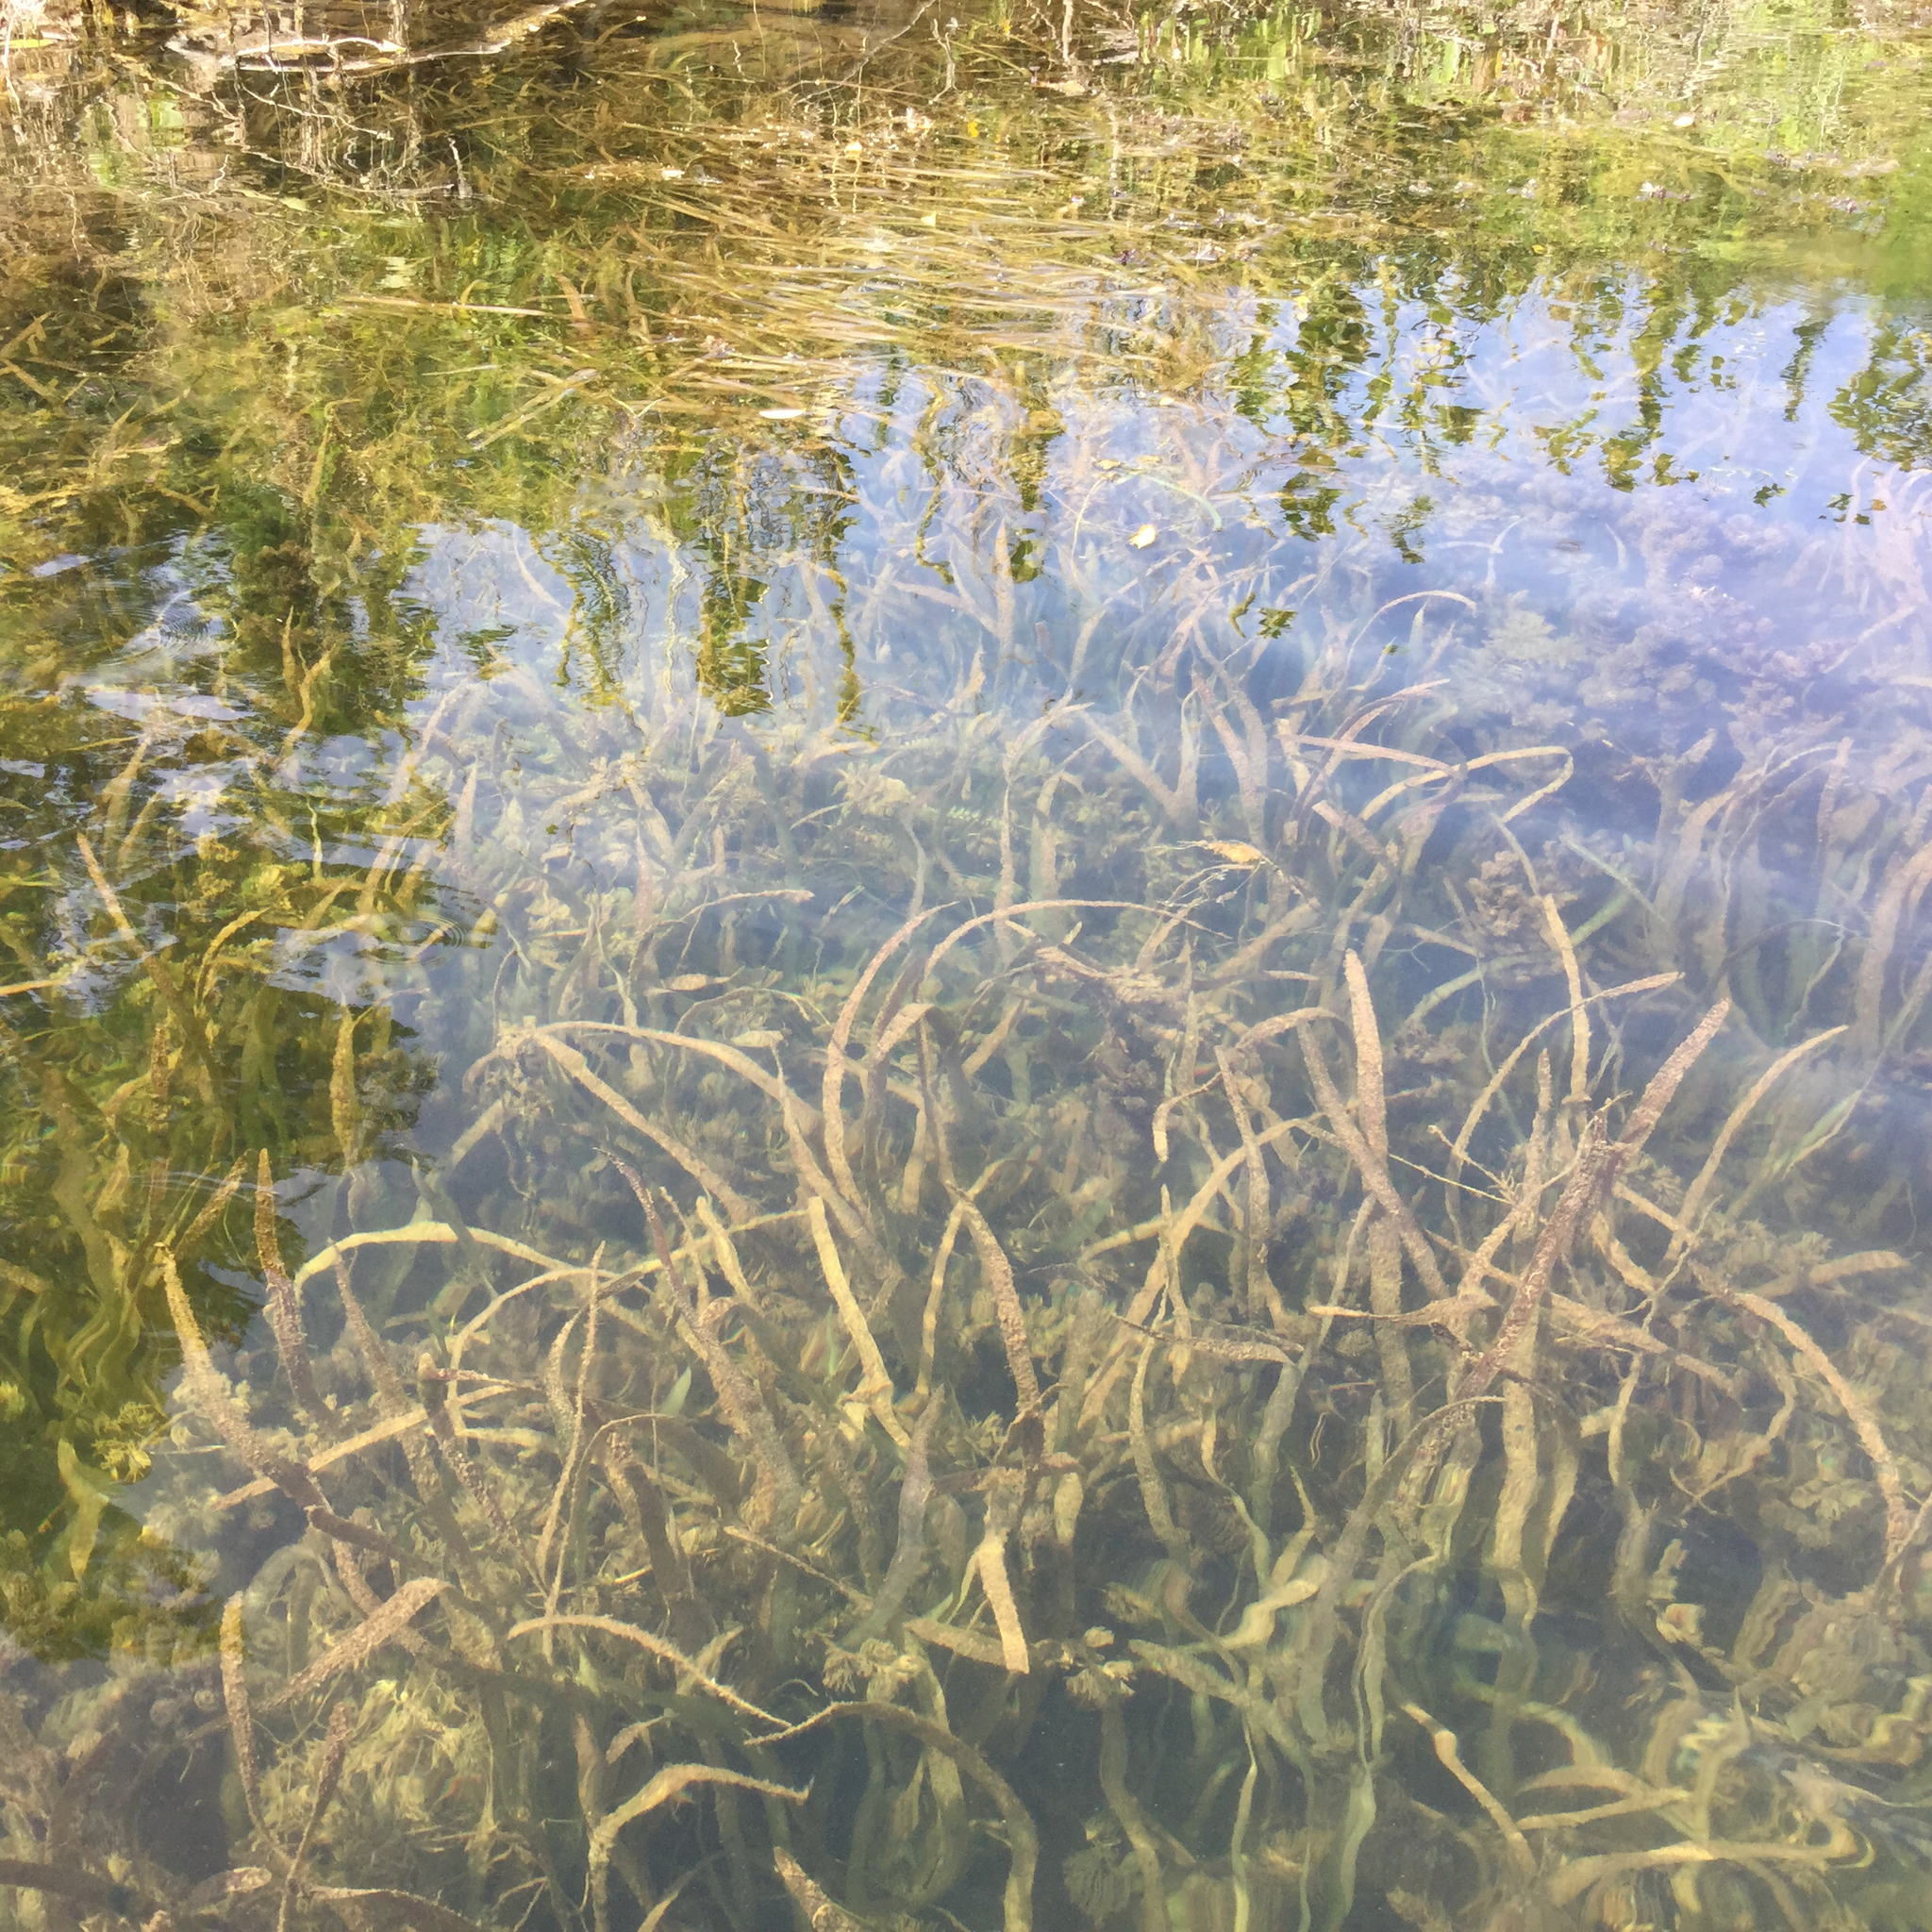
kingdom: Plantae
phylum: Tracheophyta
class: Liliopsida
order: Alismatales
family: Hydrocharitaceae
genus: Vallisneria
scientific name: Vallisneria americana
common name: American eelgrass
